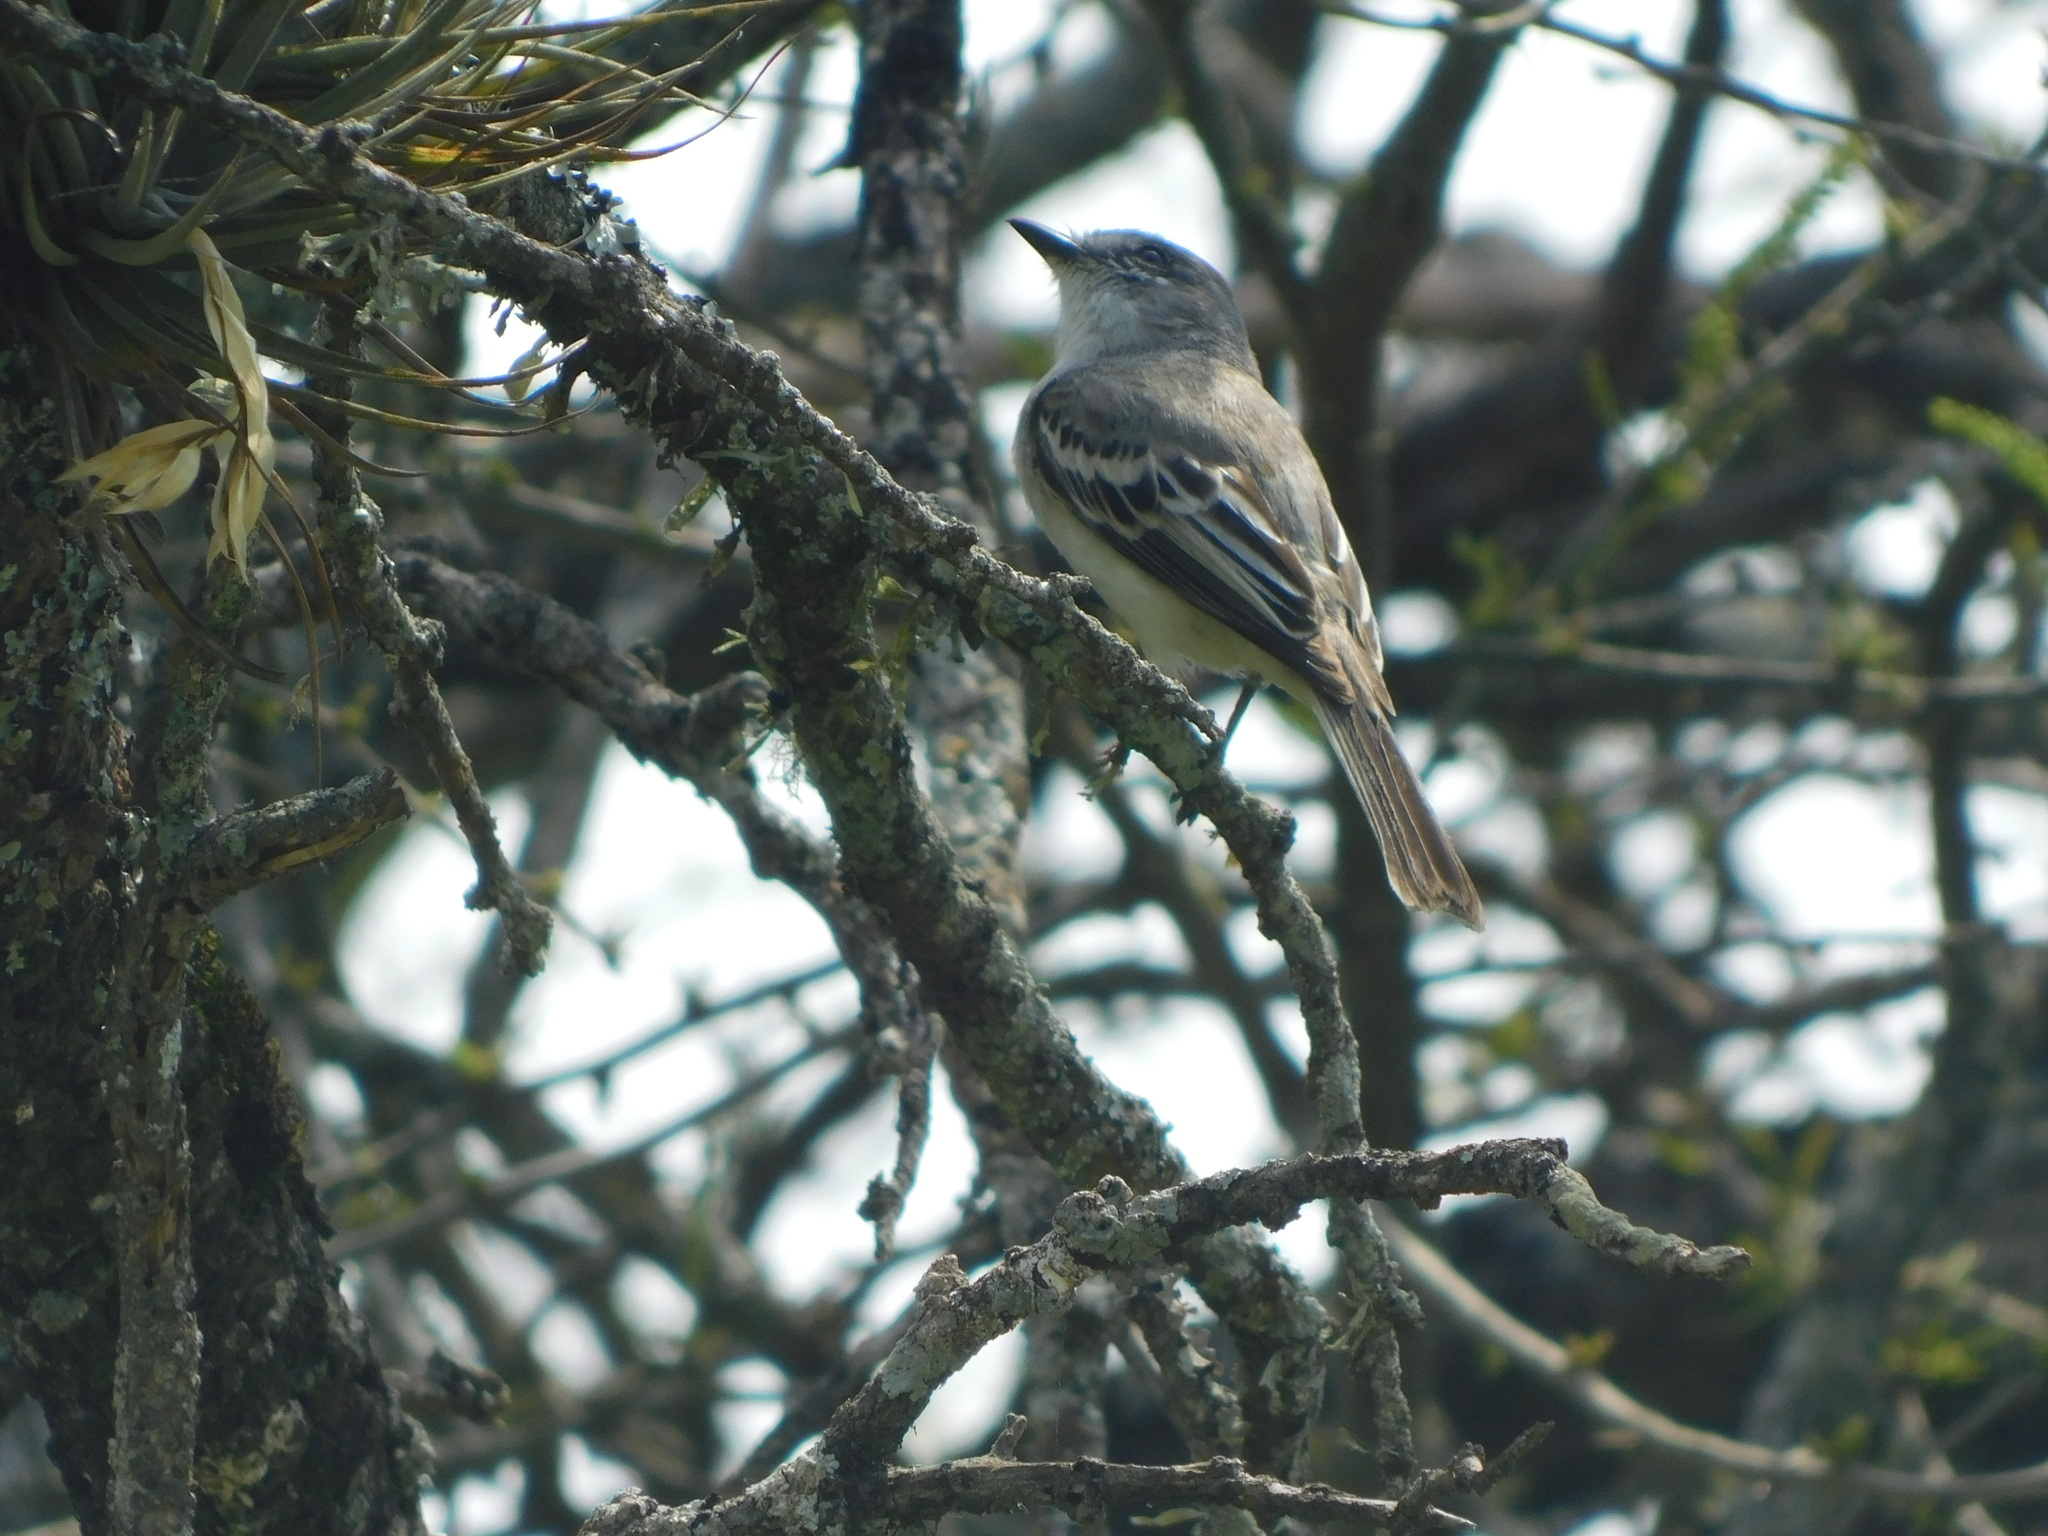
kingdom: Animalia
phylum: Chordata
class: Aves
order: Passeriformes
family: Tyrannidae
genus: Suiriri
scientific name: Suiriri suiriri
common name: Suiriri flycatcher
